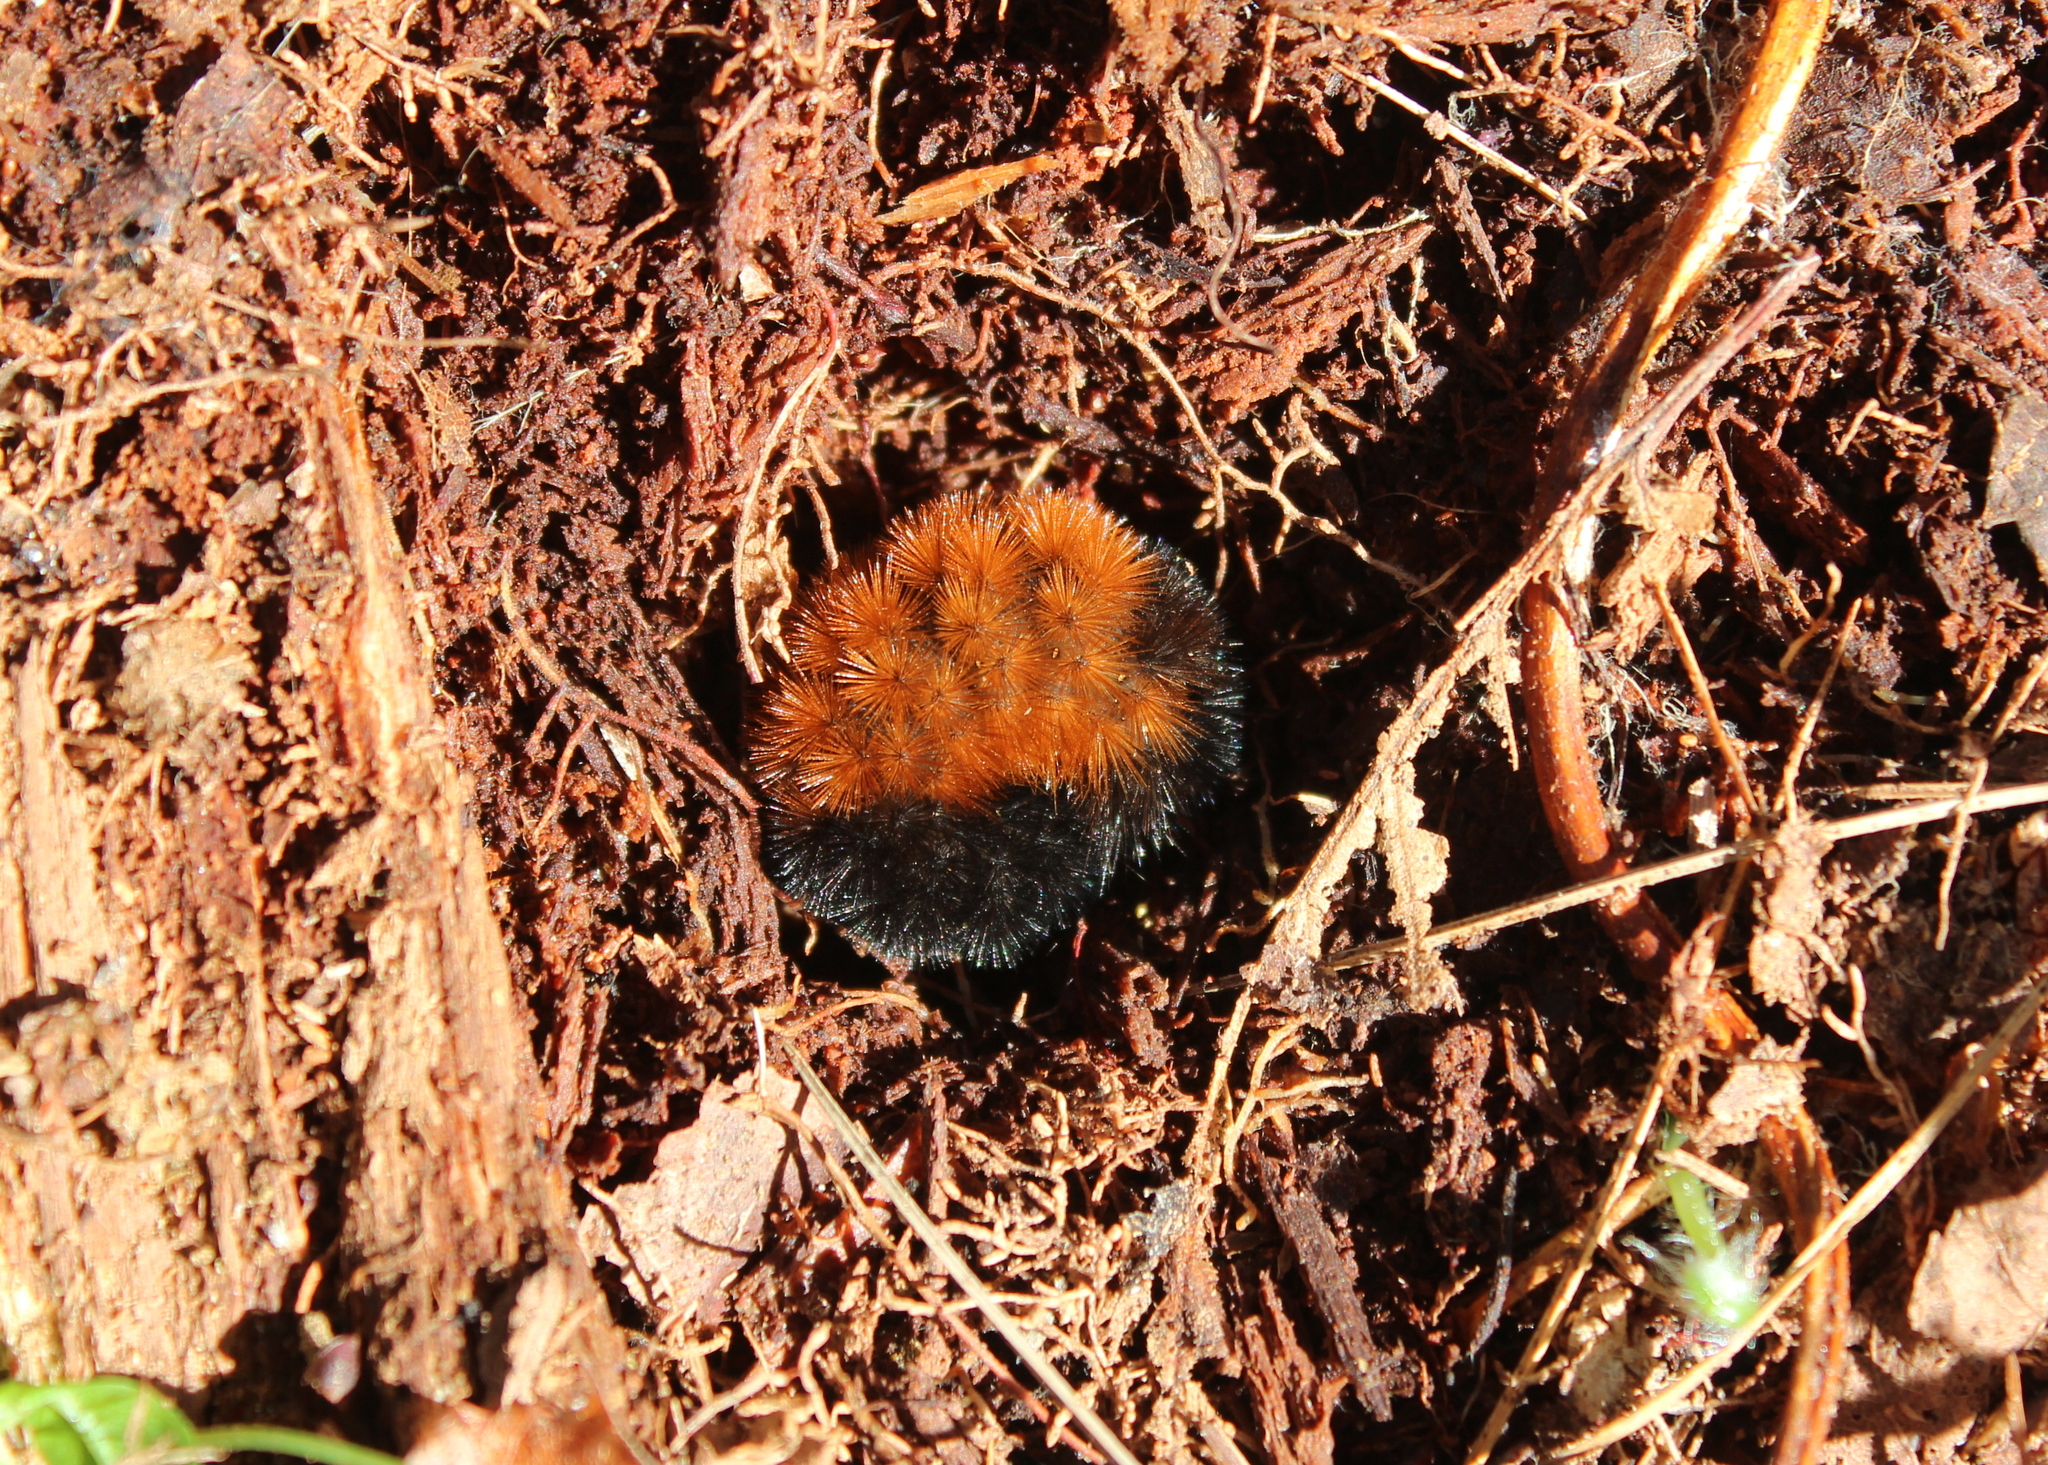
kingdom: Animalia
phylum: Arthropoda
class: Insecta
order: Lepidoptera
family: Erebidae
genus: Pyrrharctia
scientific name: Pyrrharctia isabella
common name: Isabella tiger moth
